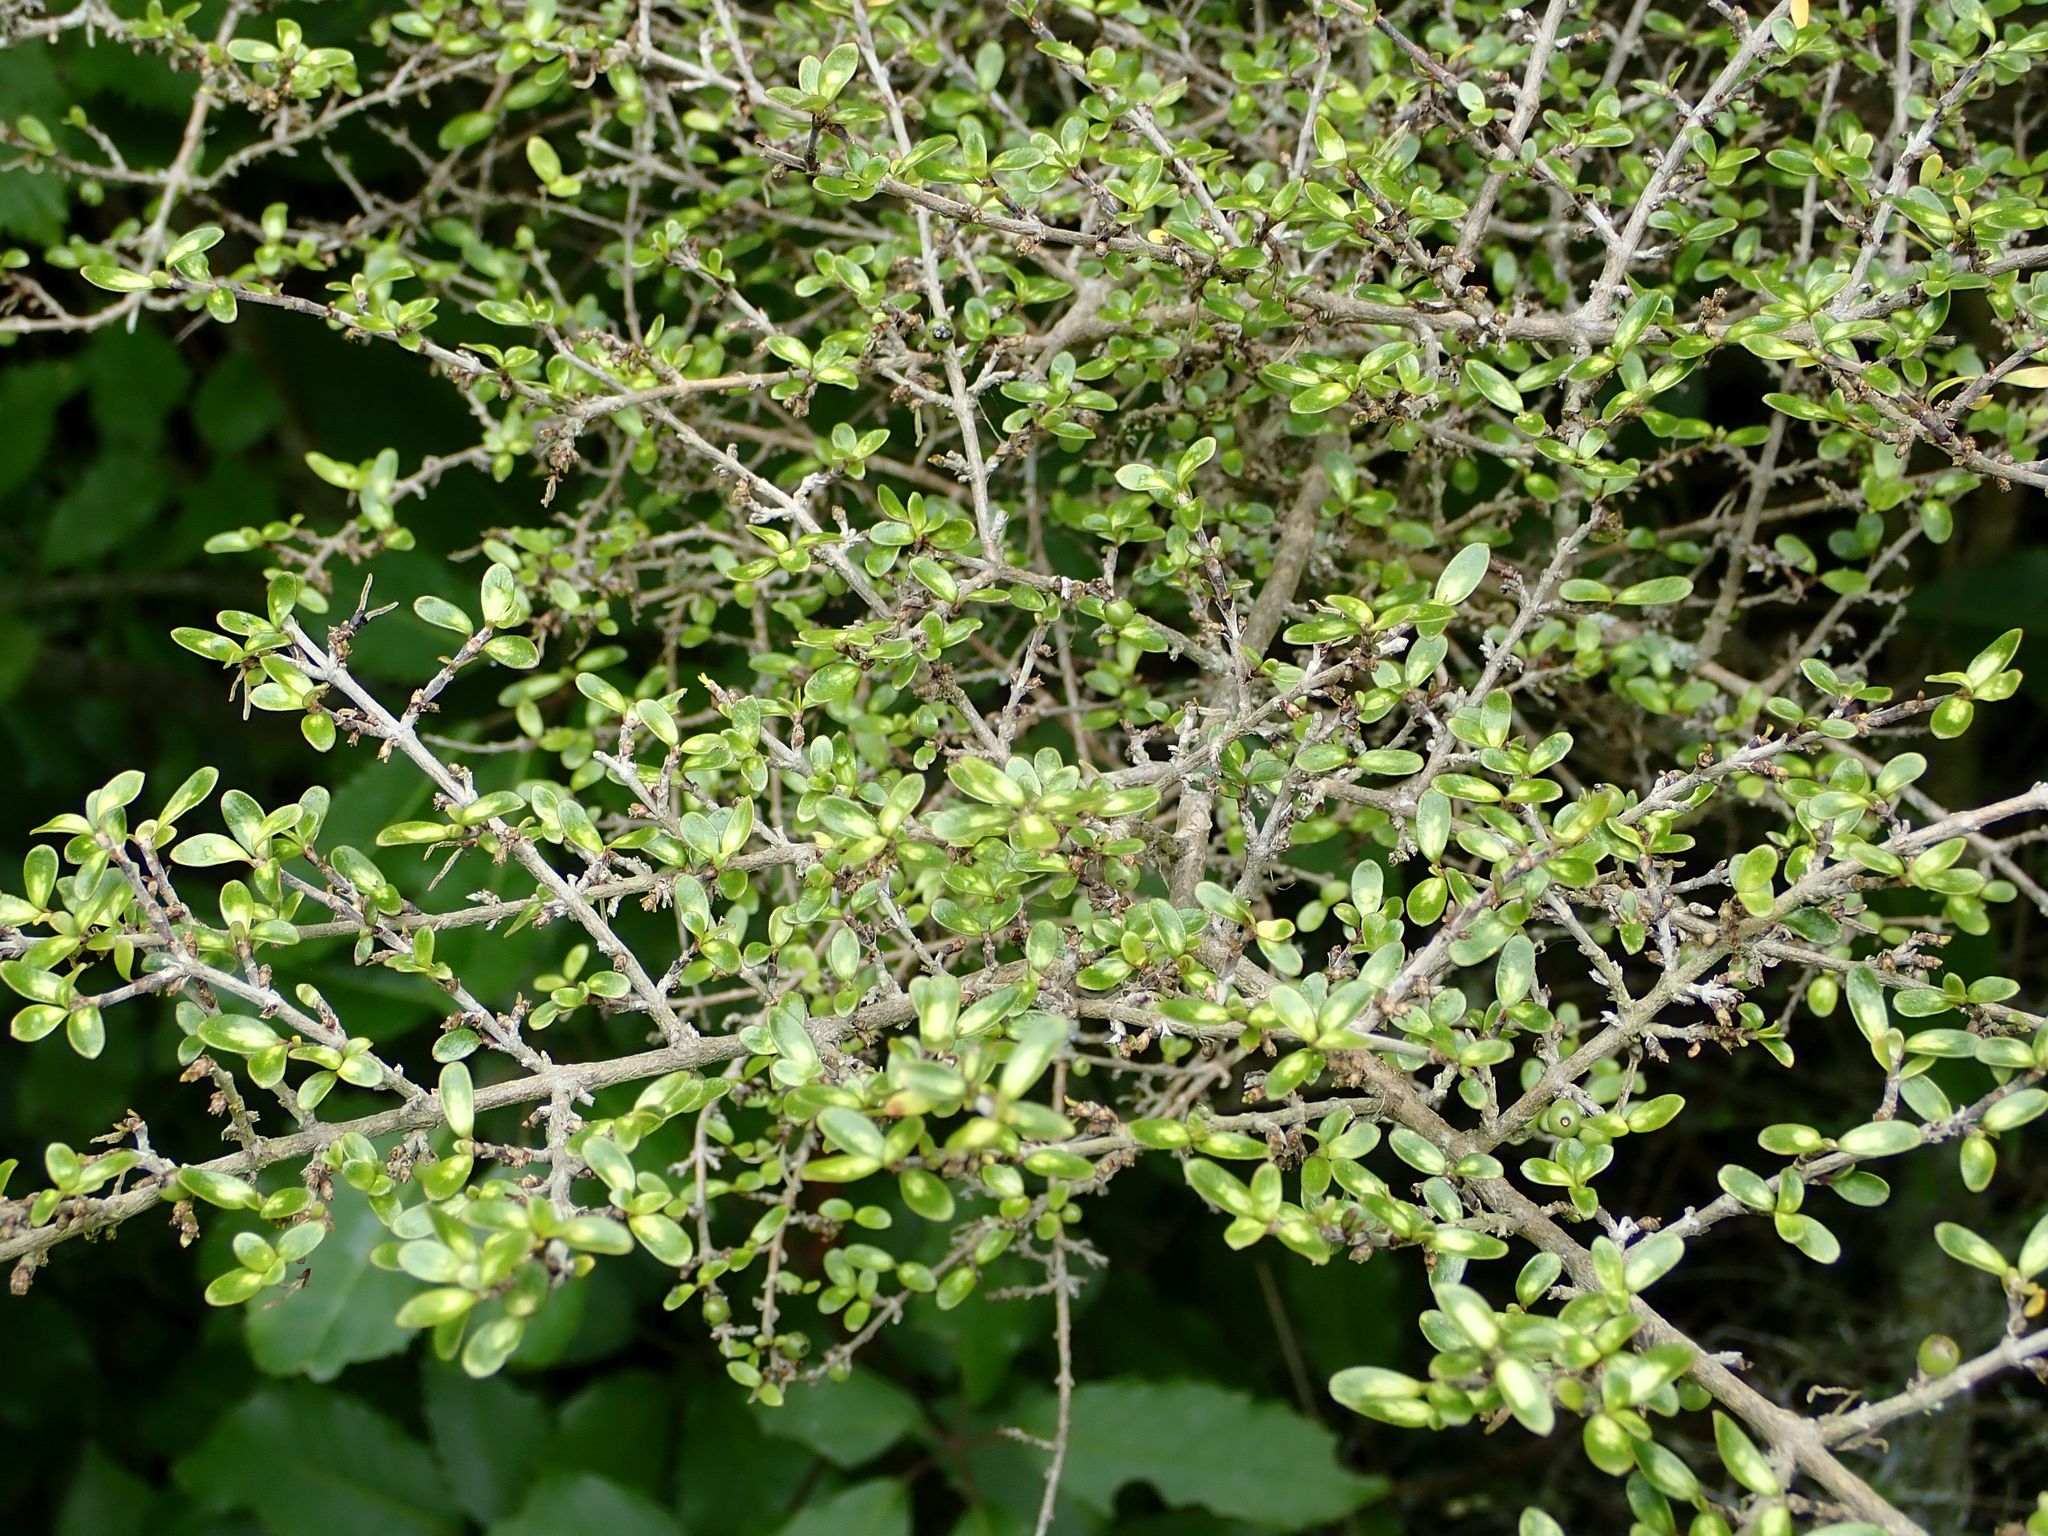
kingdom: Plantae
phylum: Tracheophyta
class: Magnoliopsida
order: Gentianales
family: Rubiaceae
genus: Coprosma
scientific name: Coprosma dumosa
